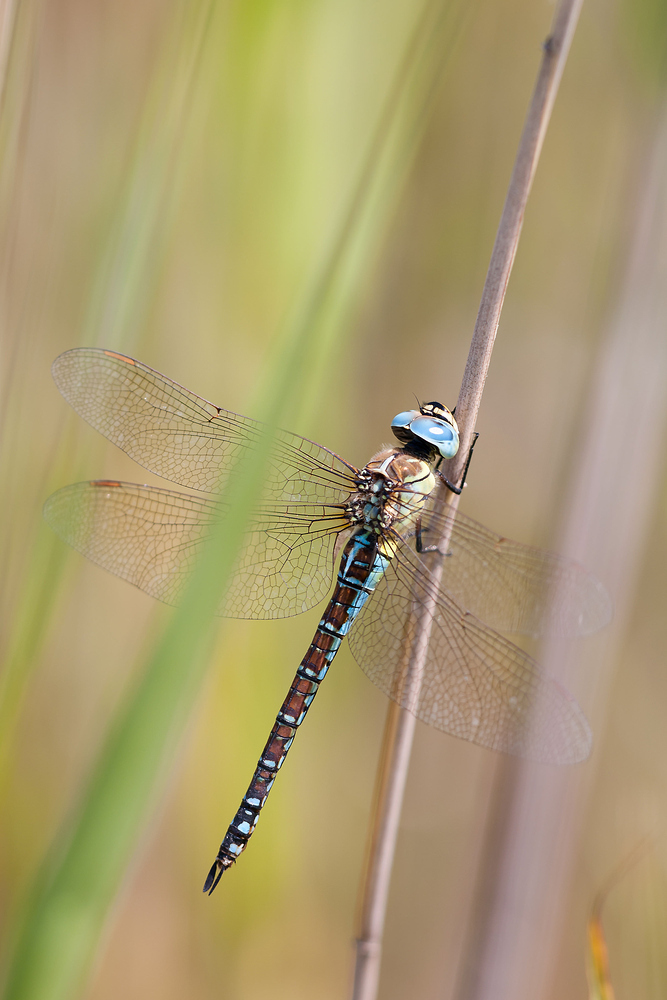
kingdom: Animalia
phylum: Arthropoda
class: Insecta
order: Odonata
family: Aeshnidae
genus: Aeshna
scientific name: Aeshna affinis
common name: Southern migrant hawker
